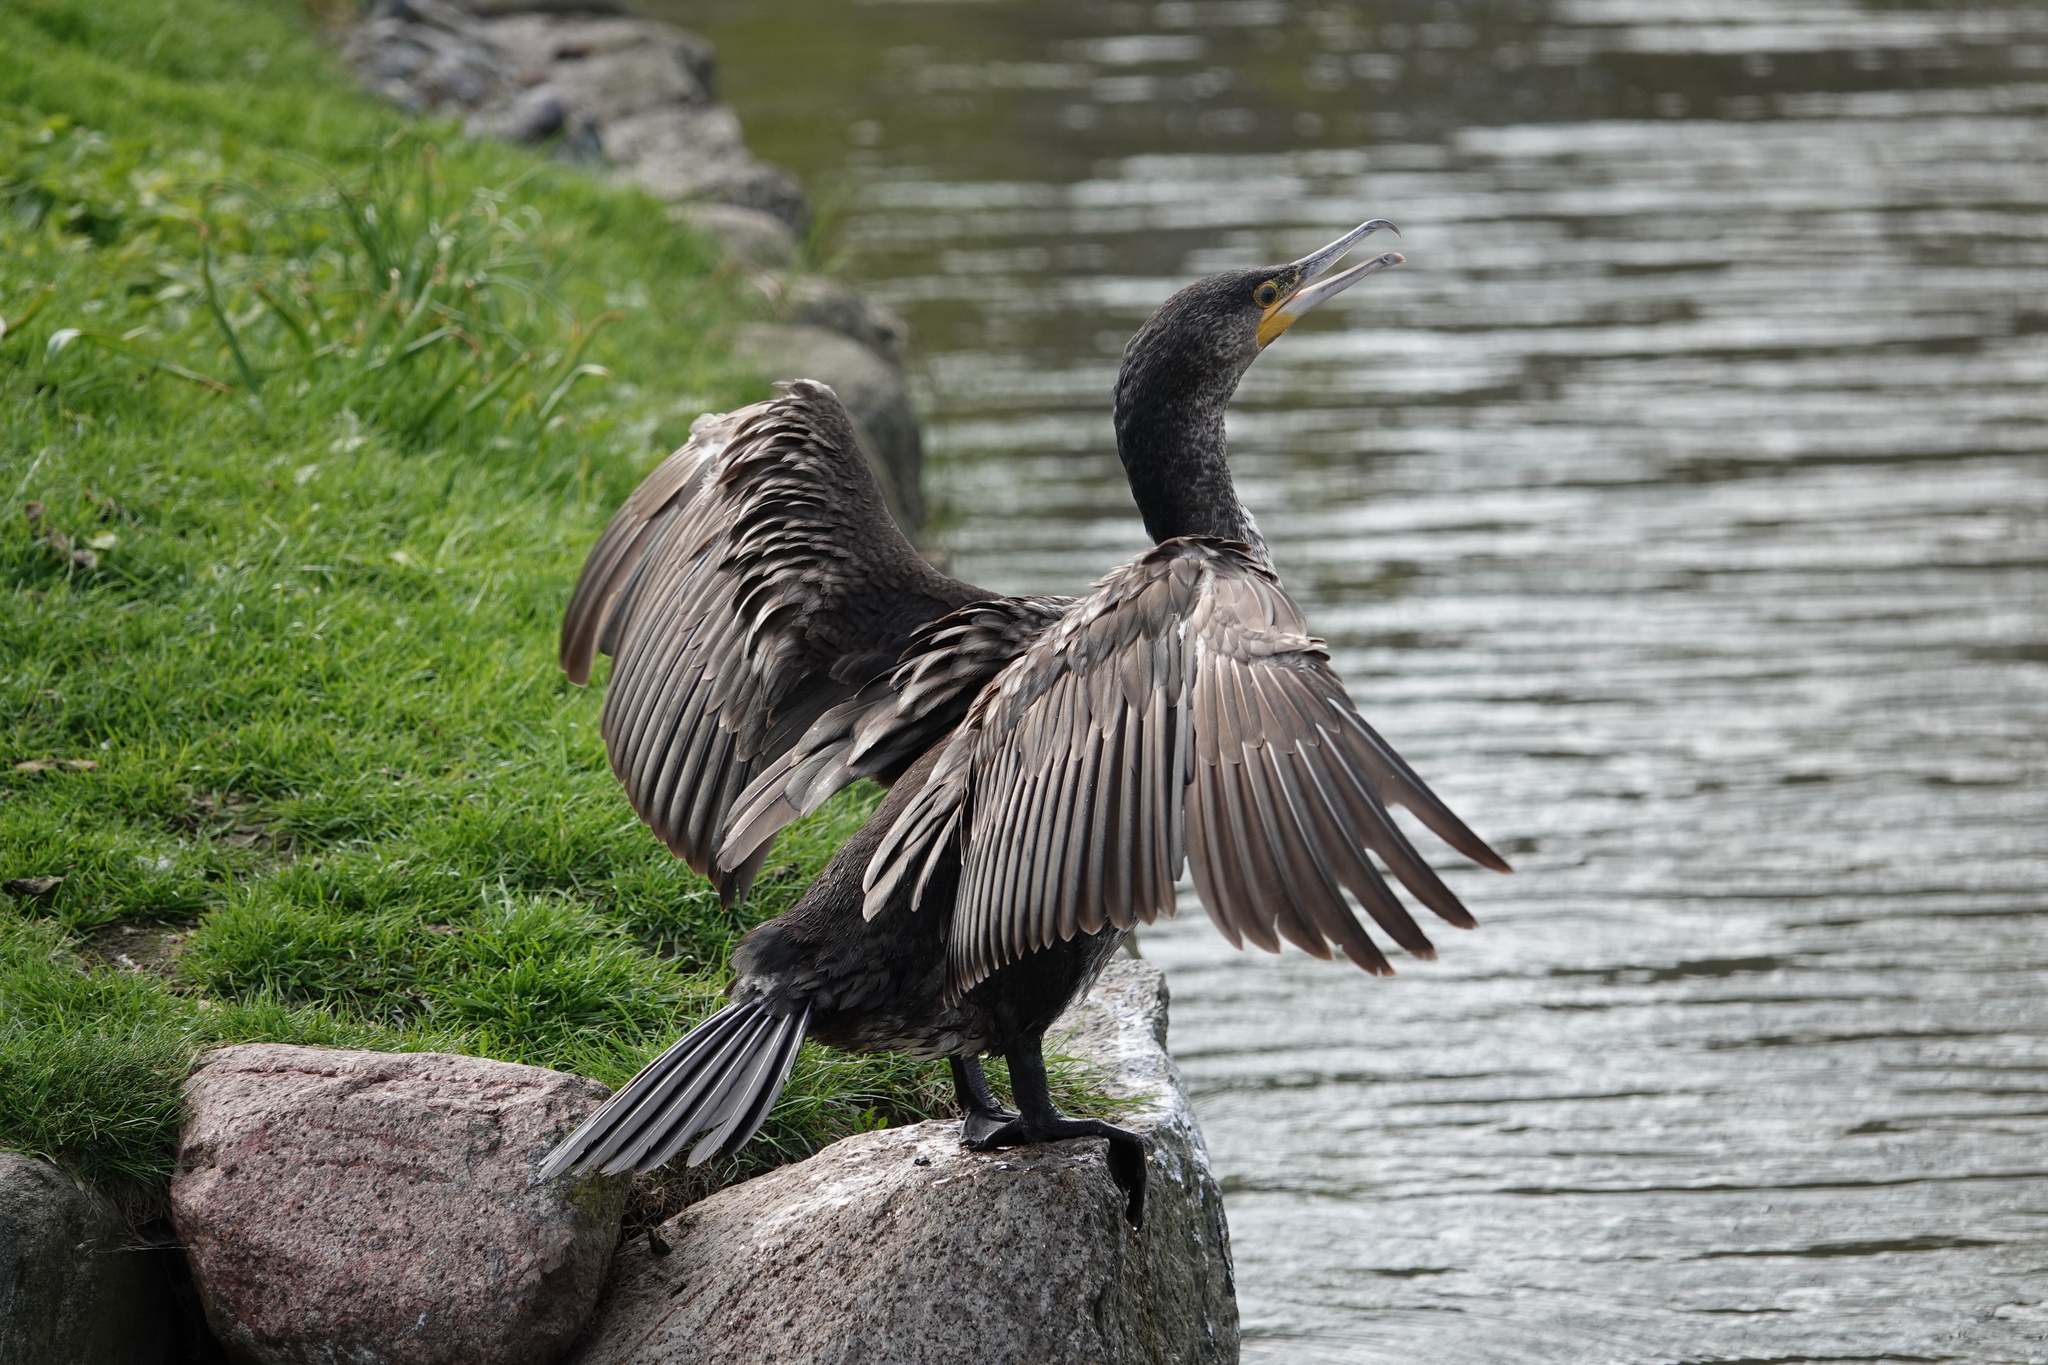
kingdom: Animalia
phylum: Chordata
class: Aves
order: Suliformes
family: Phalacrocoracidae
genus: Phalacrocorax
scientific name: Phalacrocorax carbo
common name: Great cormorant
